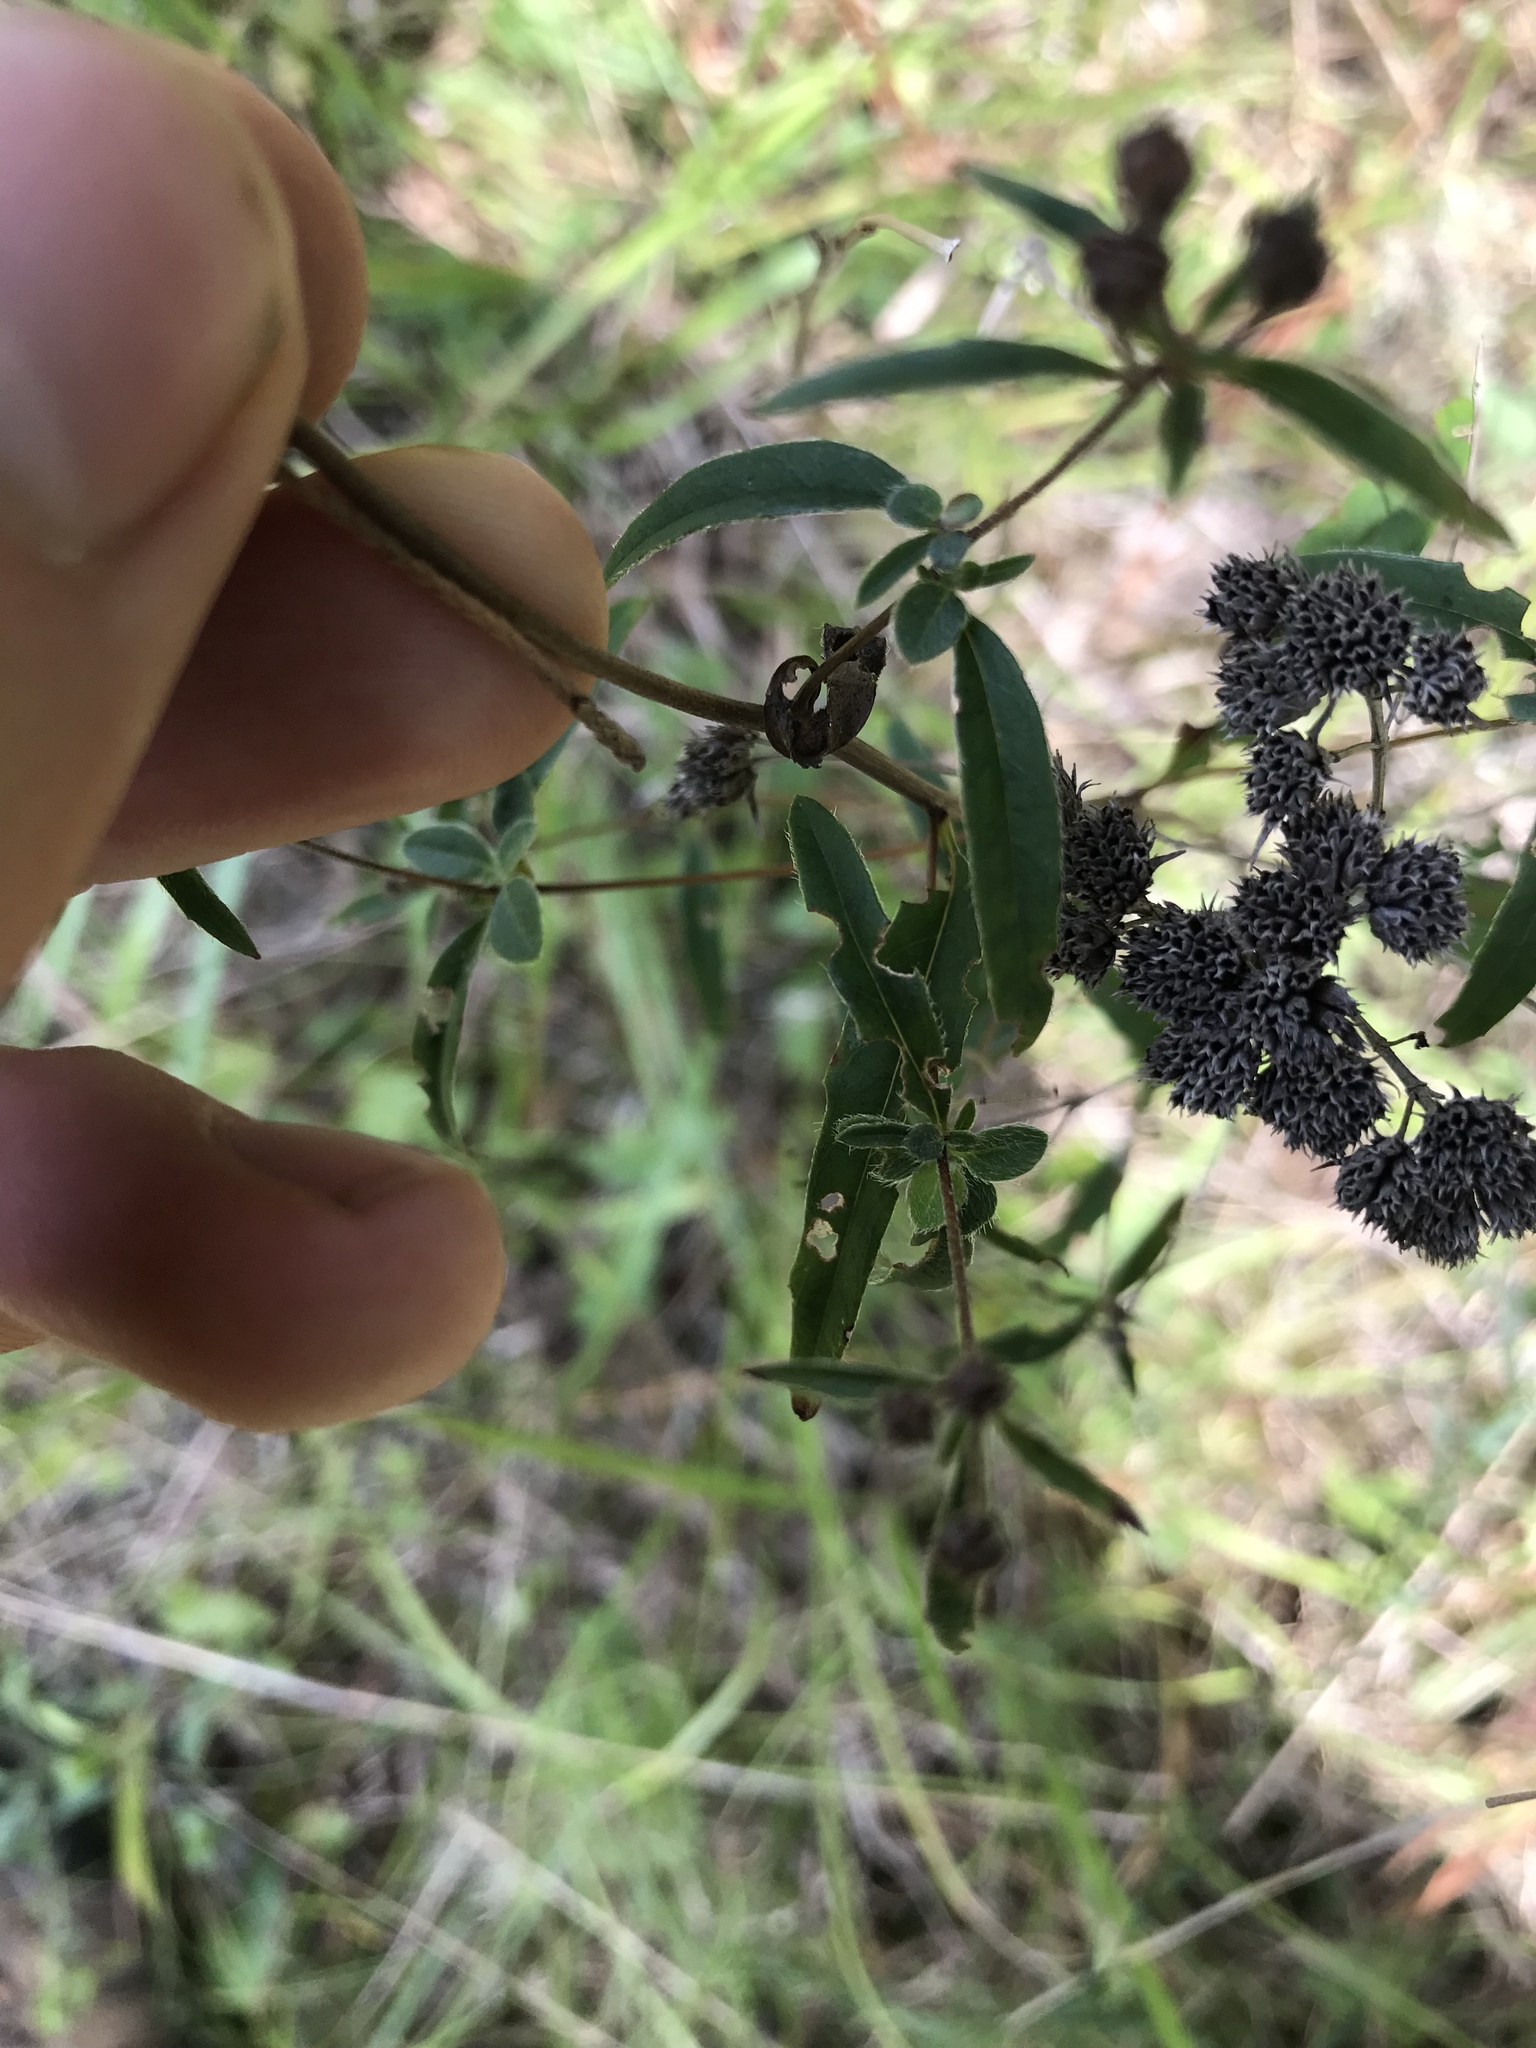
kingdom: Plantae
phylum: Tracheophyta
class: Magnoliopsida
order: Myrtales
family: Onagraceae
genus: Oenothera
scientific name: Oenothera fruticosa
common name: Southern sundrops
